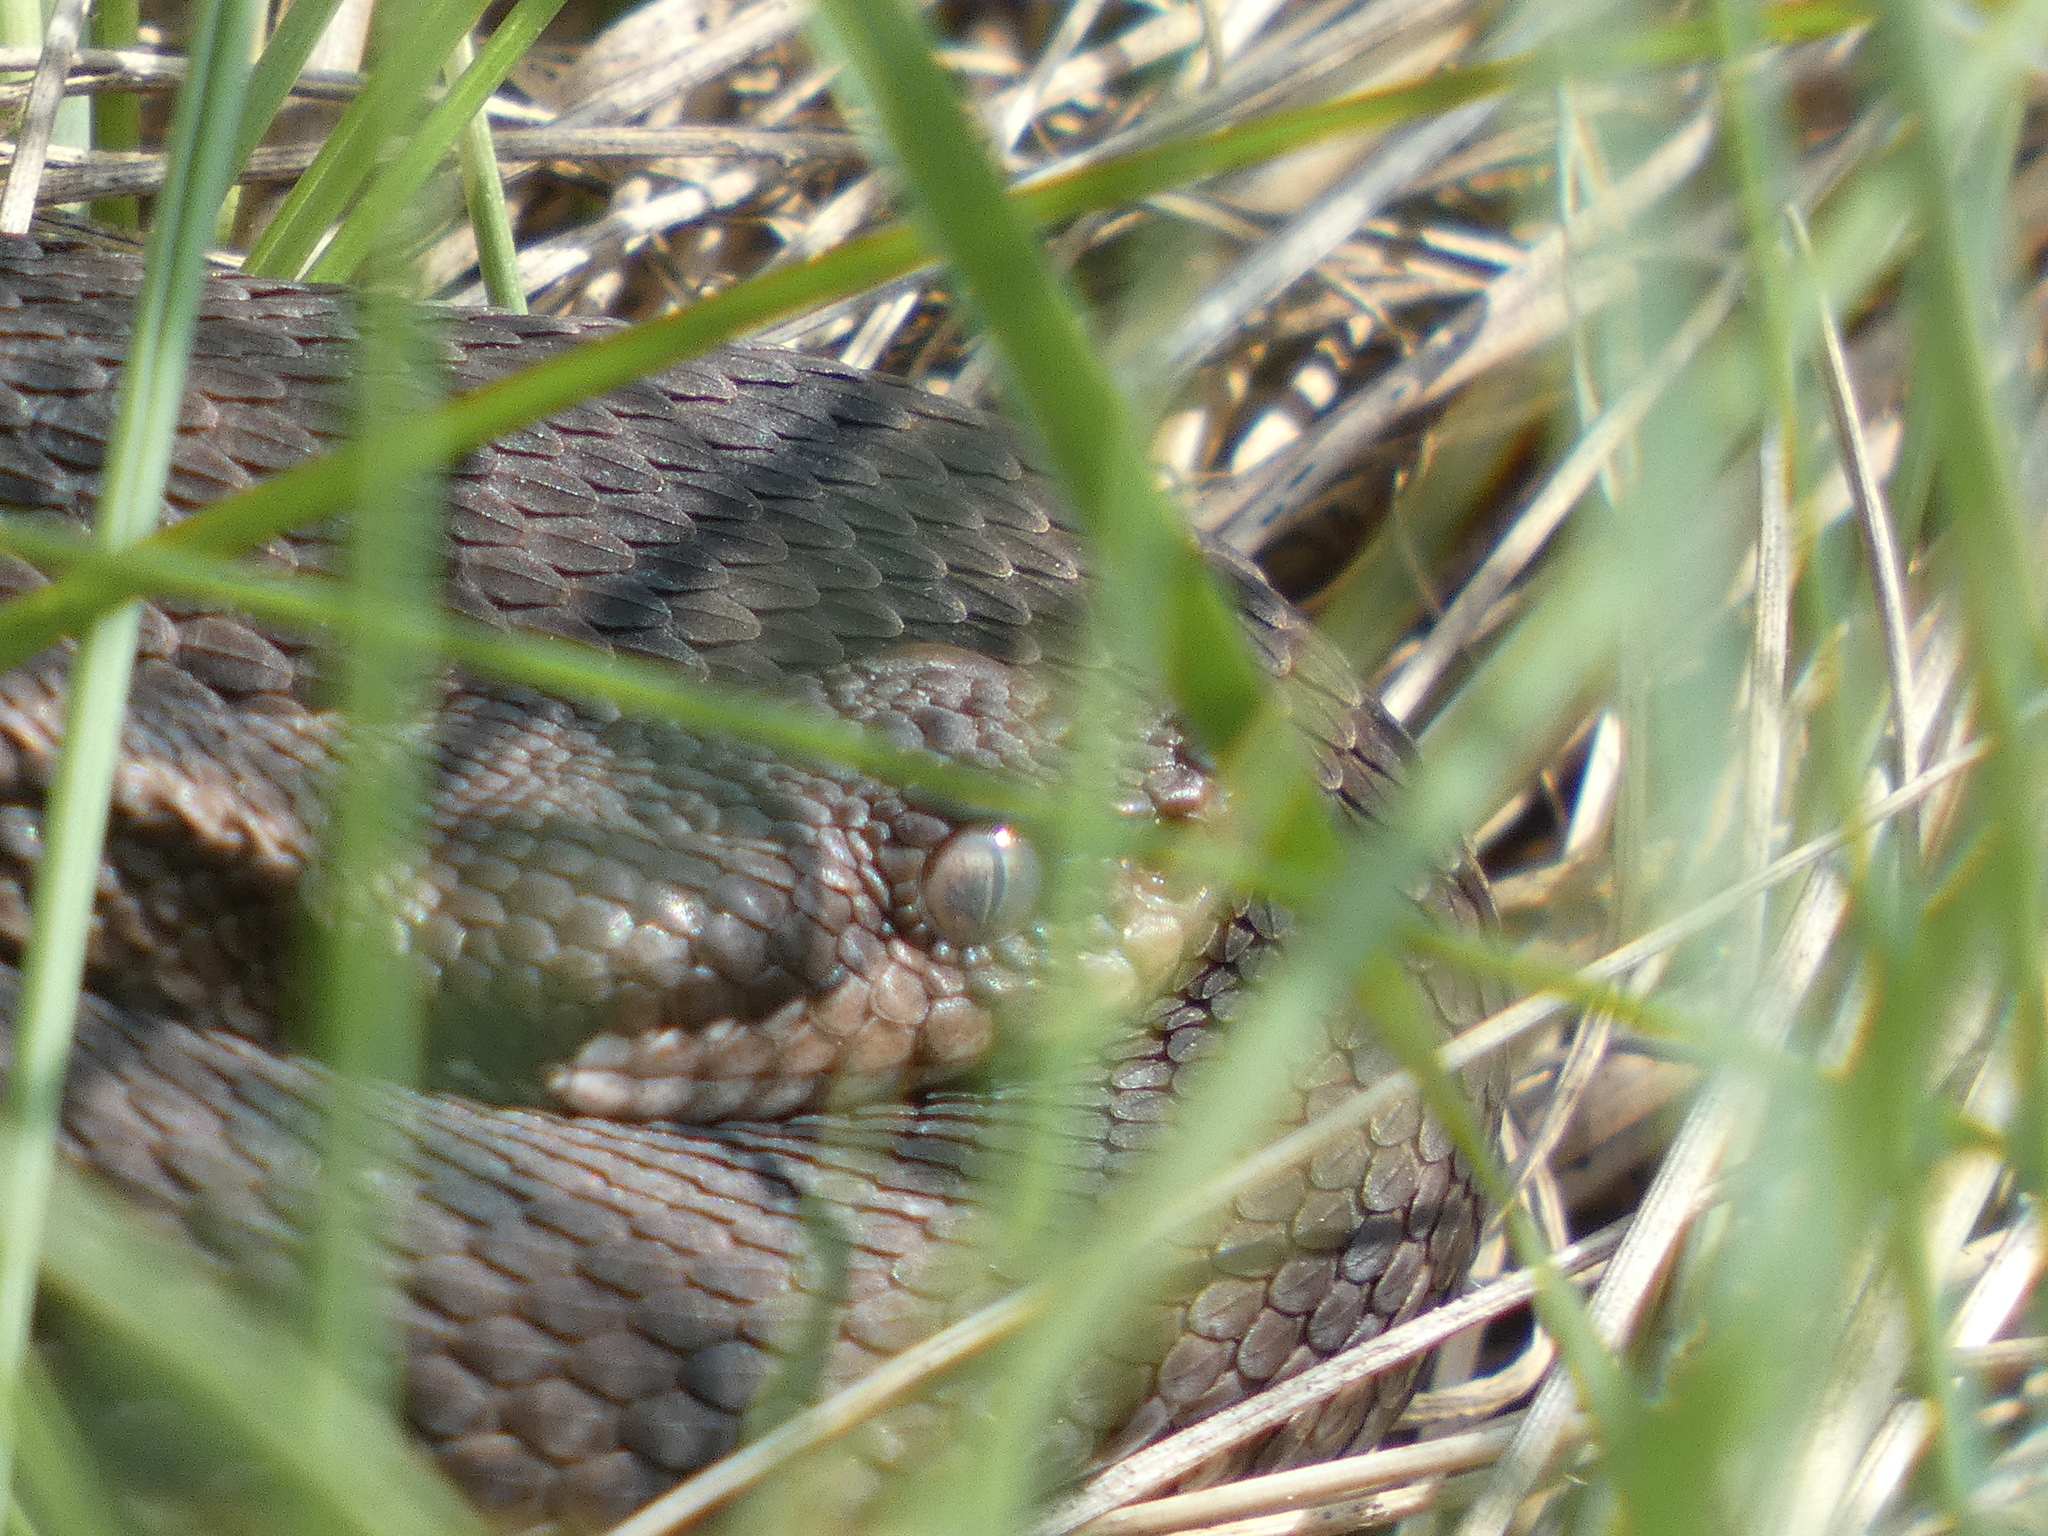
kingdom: Animalia
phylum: Chordata
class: Squamata
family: Viperidae
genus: Vipera
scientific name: Vipera aspis
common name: Asp viper
